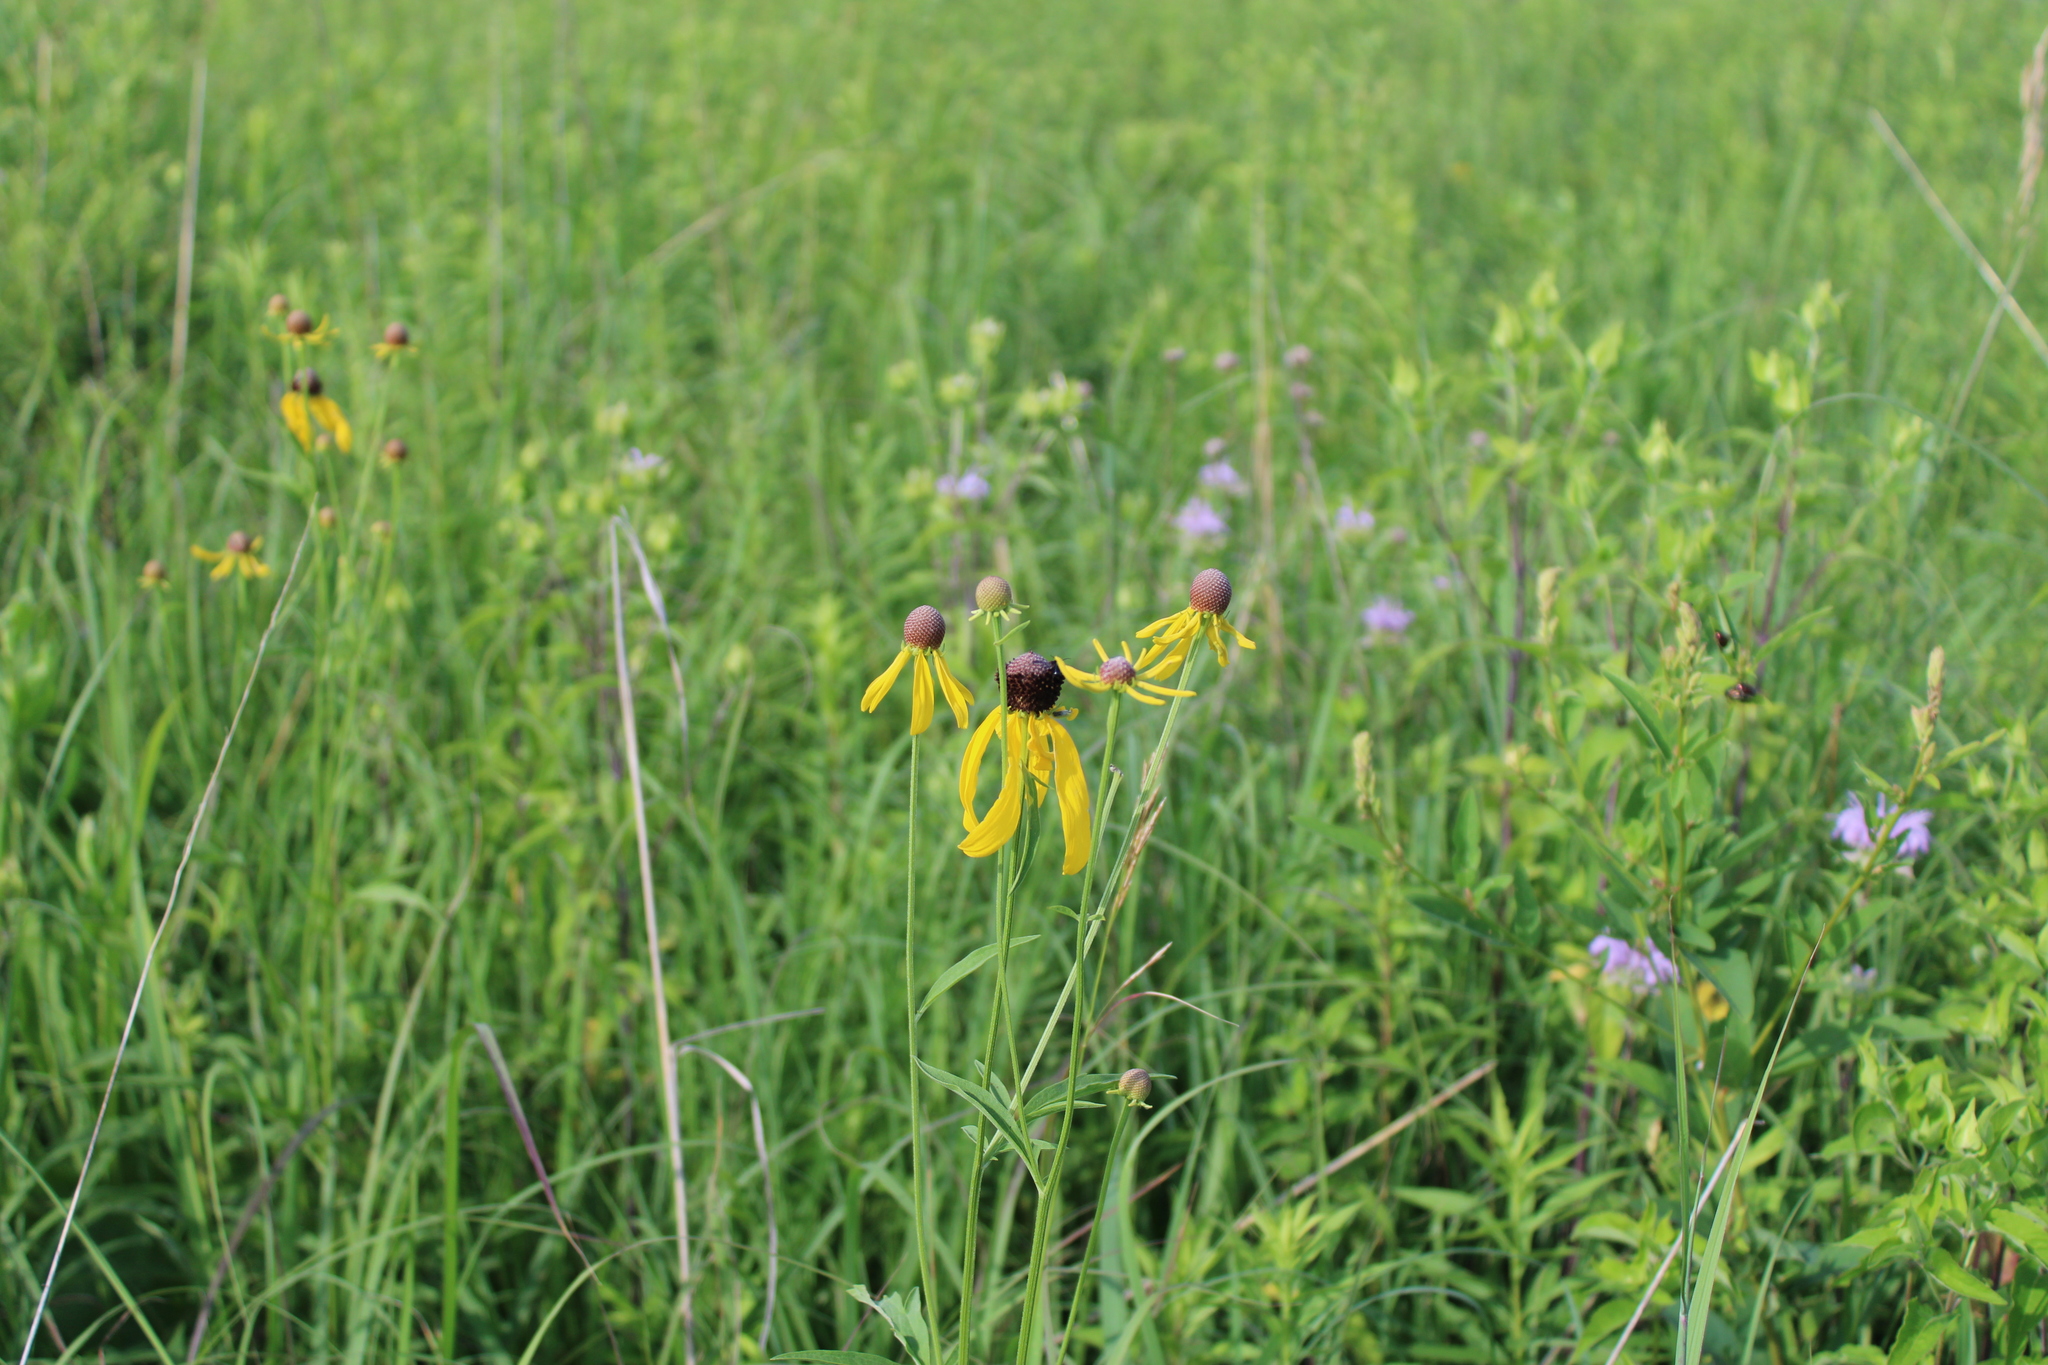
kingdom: Plantae
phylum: Tracheophyta
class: Magnoliopsida
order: Asterales
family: Asteraceae
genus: Ratibida
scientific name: Ratibida pinnata
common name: Drooping prairie-coneflower
